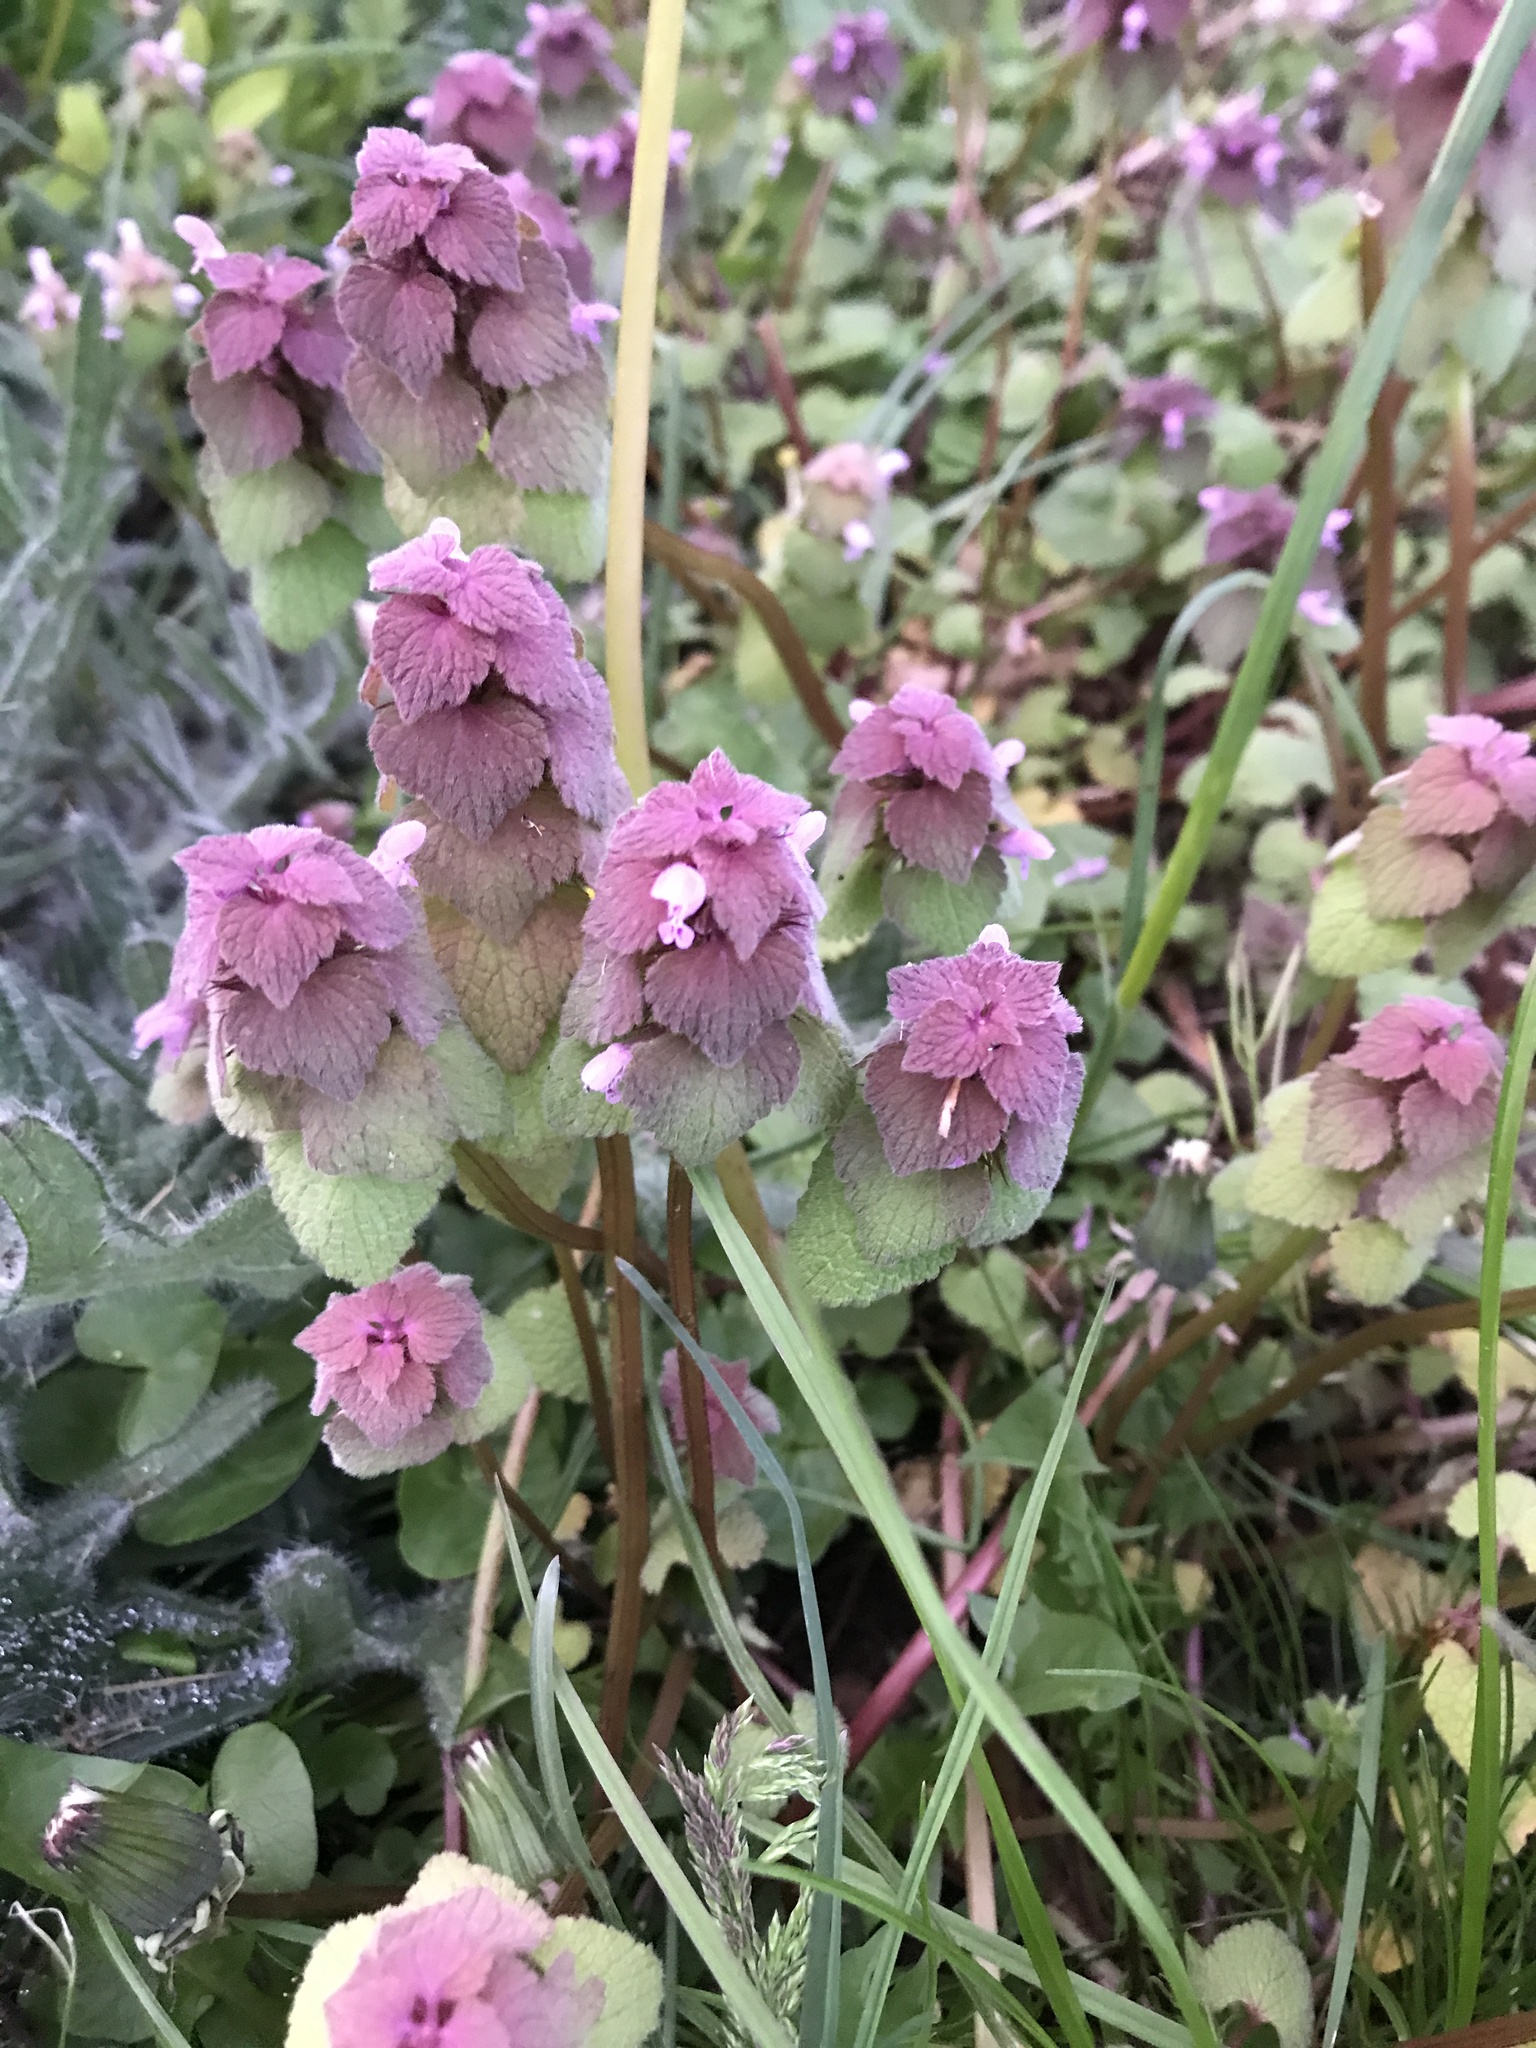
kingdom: Plantae
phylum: Tracheophyta
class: Magnoliopsida
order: Lamiales
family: Lamiaceae
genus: Lamium
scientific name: Lamium purpureum
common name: Red dead-nettle
